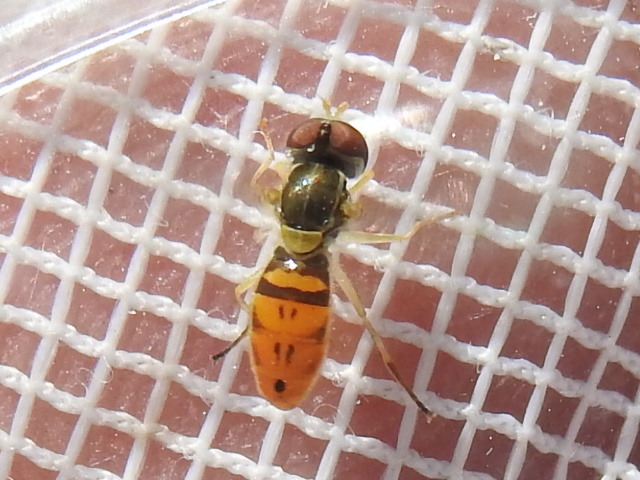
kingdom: Animalia
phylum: Arthropoda
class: Insecta
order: Diptera
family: Syrphidae
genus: Toxomerus
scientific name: Toxomerus marginatus
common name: Syrphid fly
